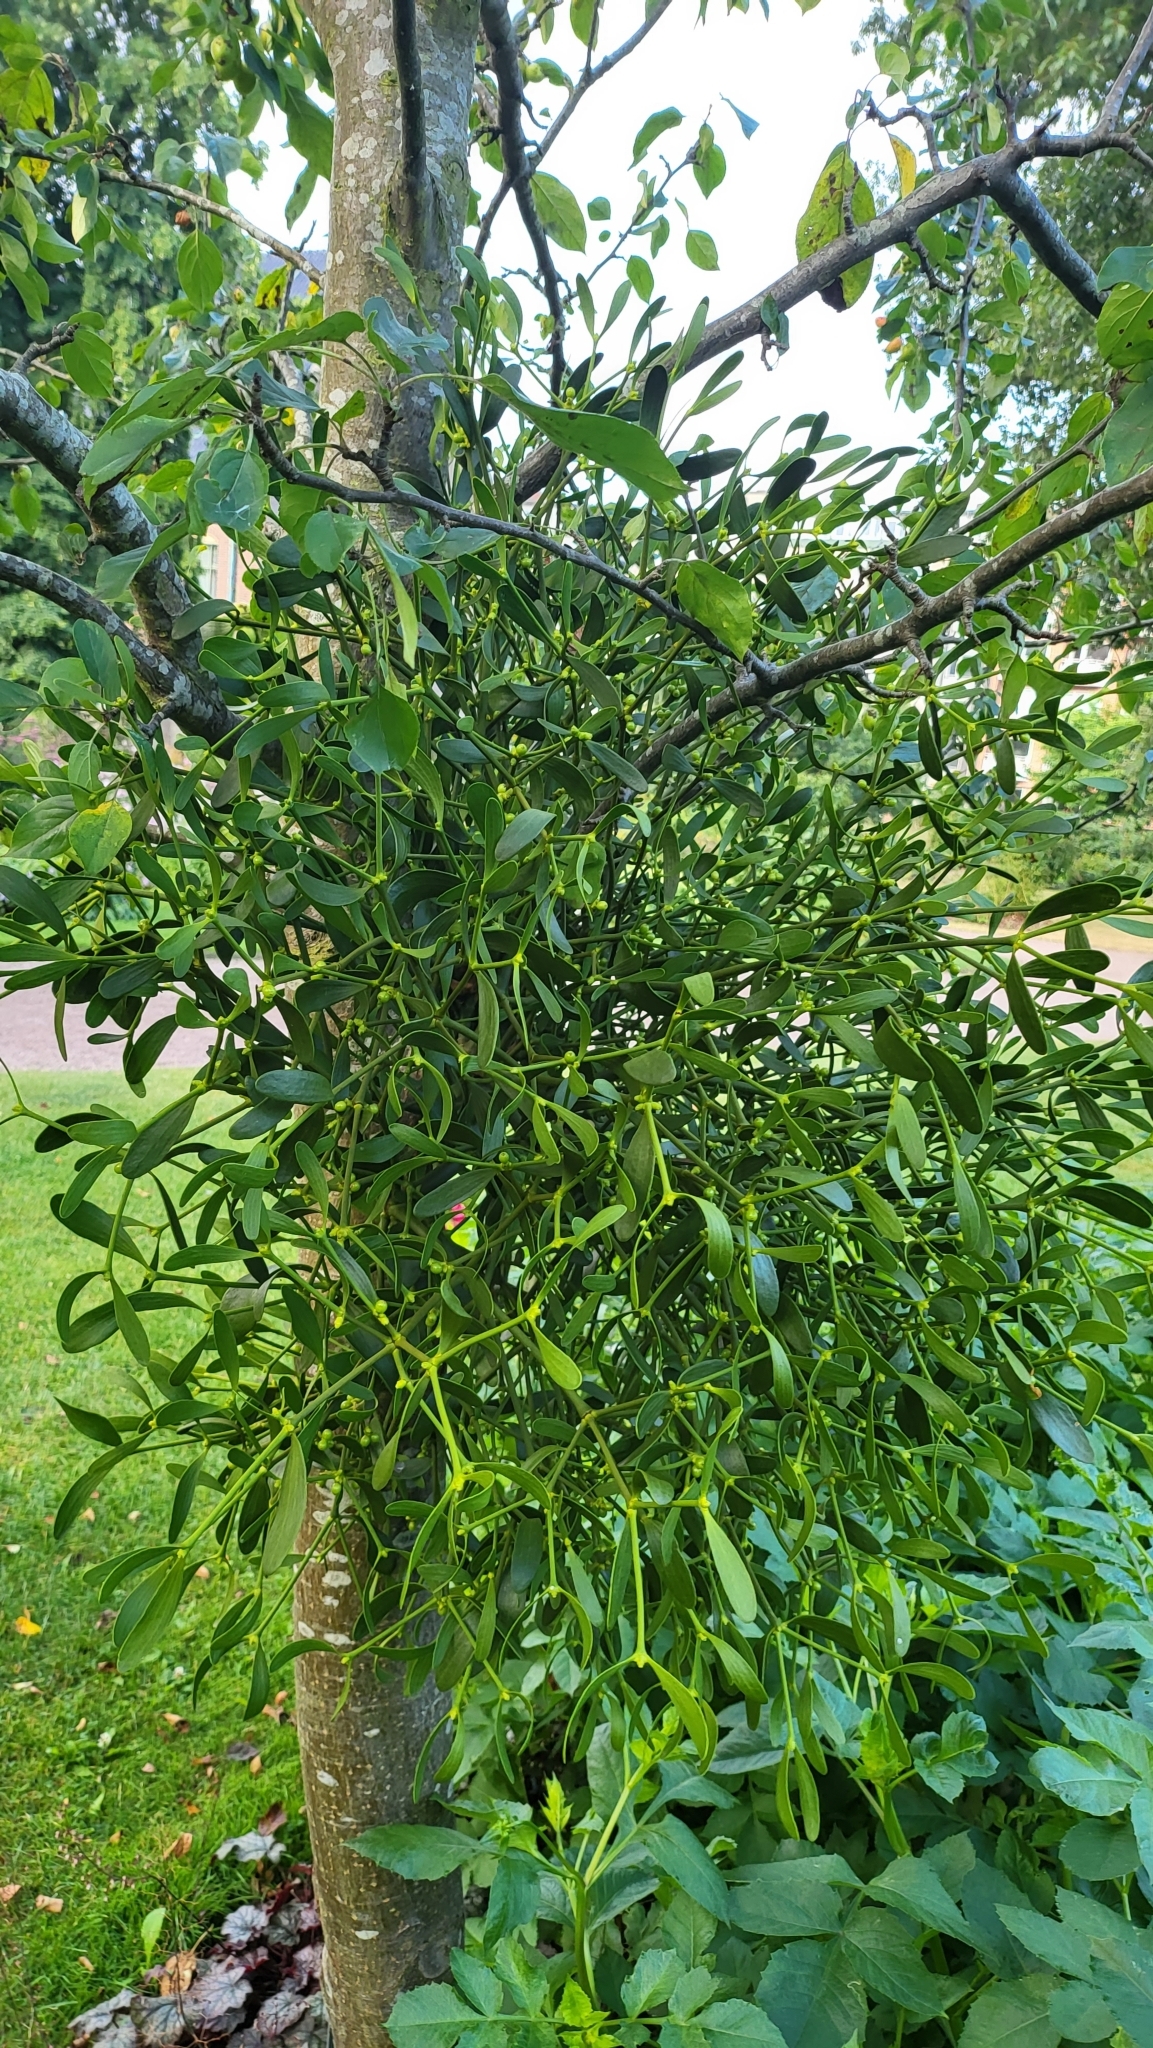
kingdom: Plantae
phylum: Tracheophyta
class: Magnoliopsida
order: Santalales
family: Viscaceae
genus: Viscum
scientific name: Viscum album
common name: Mistletoe
